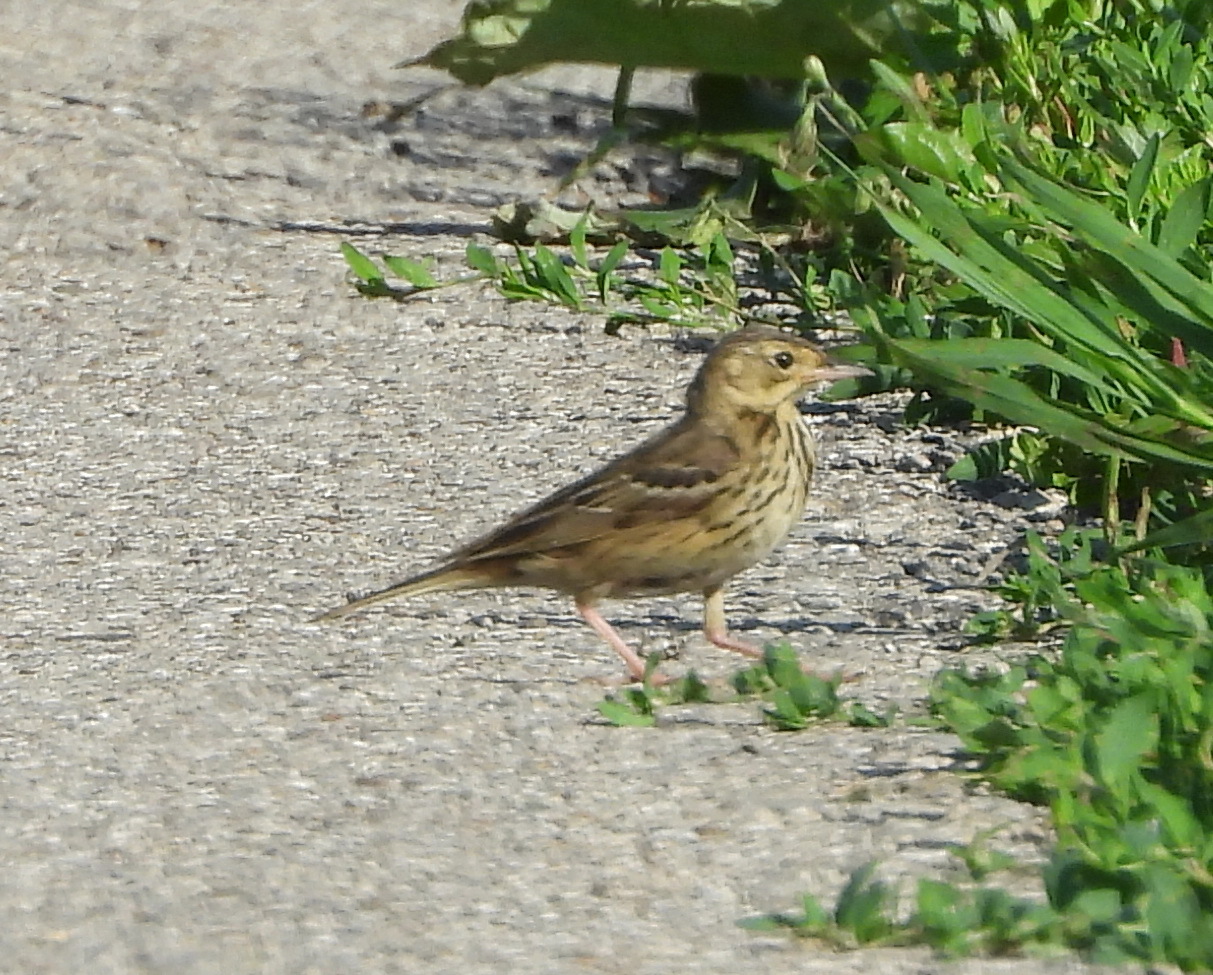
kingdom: Animalia
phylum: Chordata
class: Aves
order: Passeriformes
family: Motacillidae
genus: Anthus
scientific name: Anthus trivialis
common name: Tree pipit
